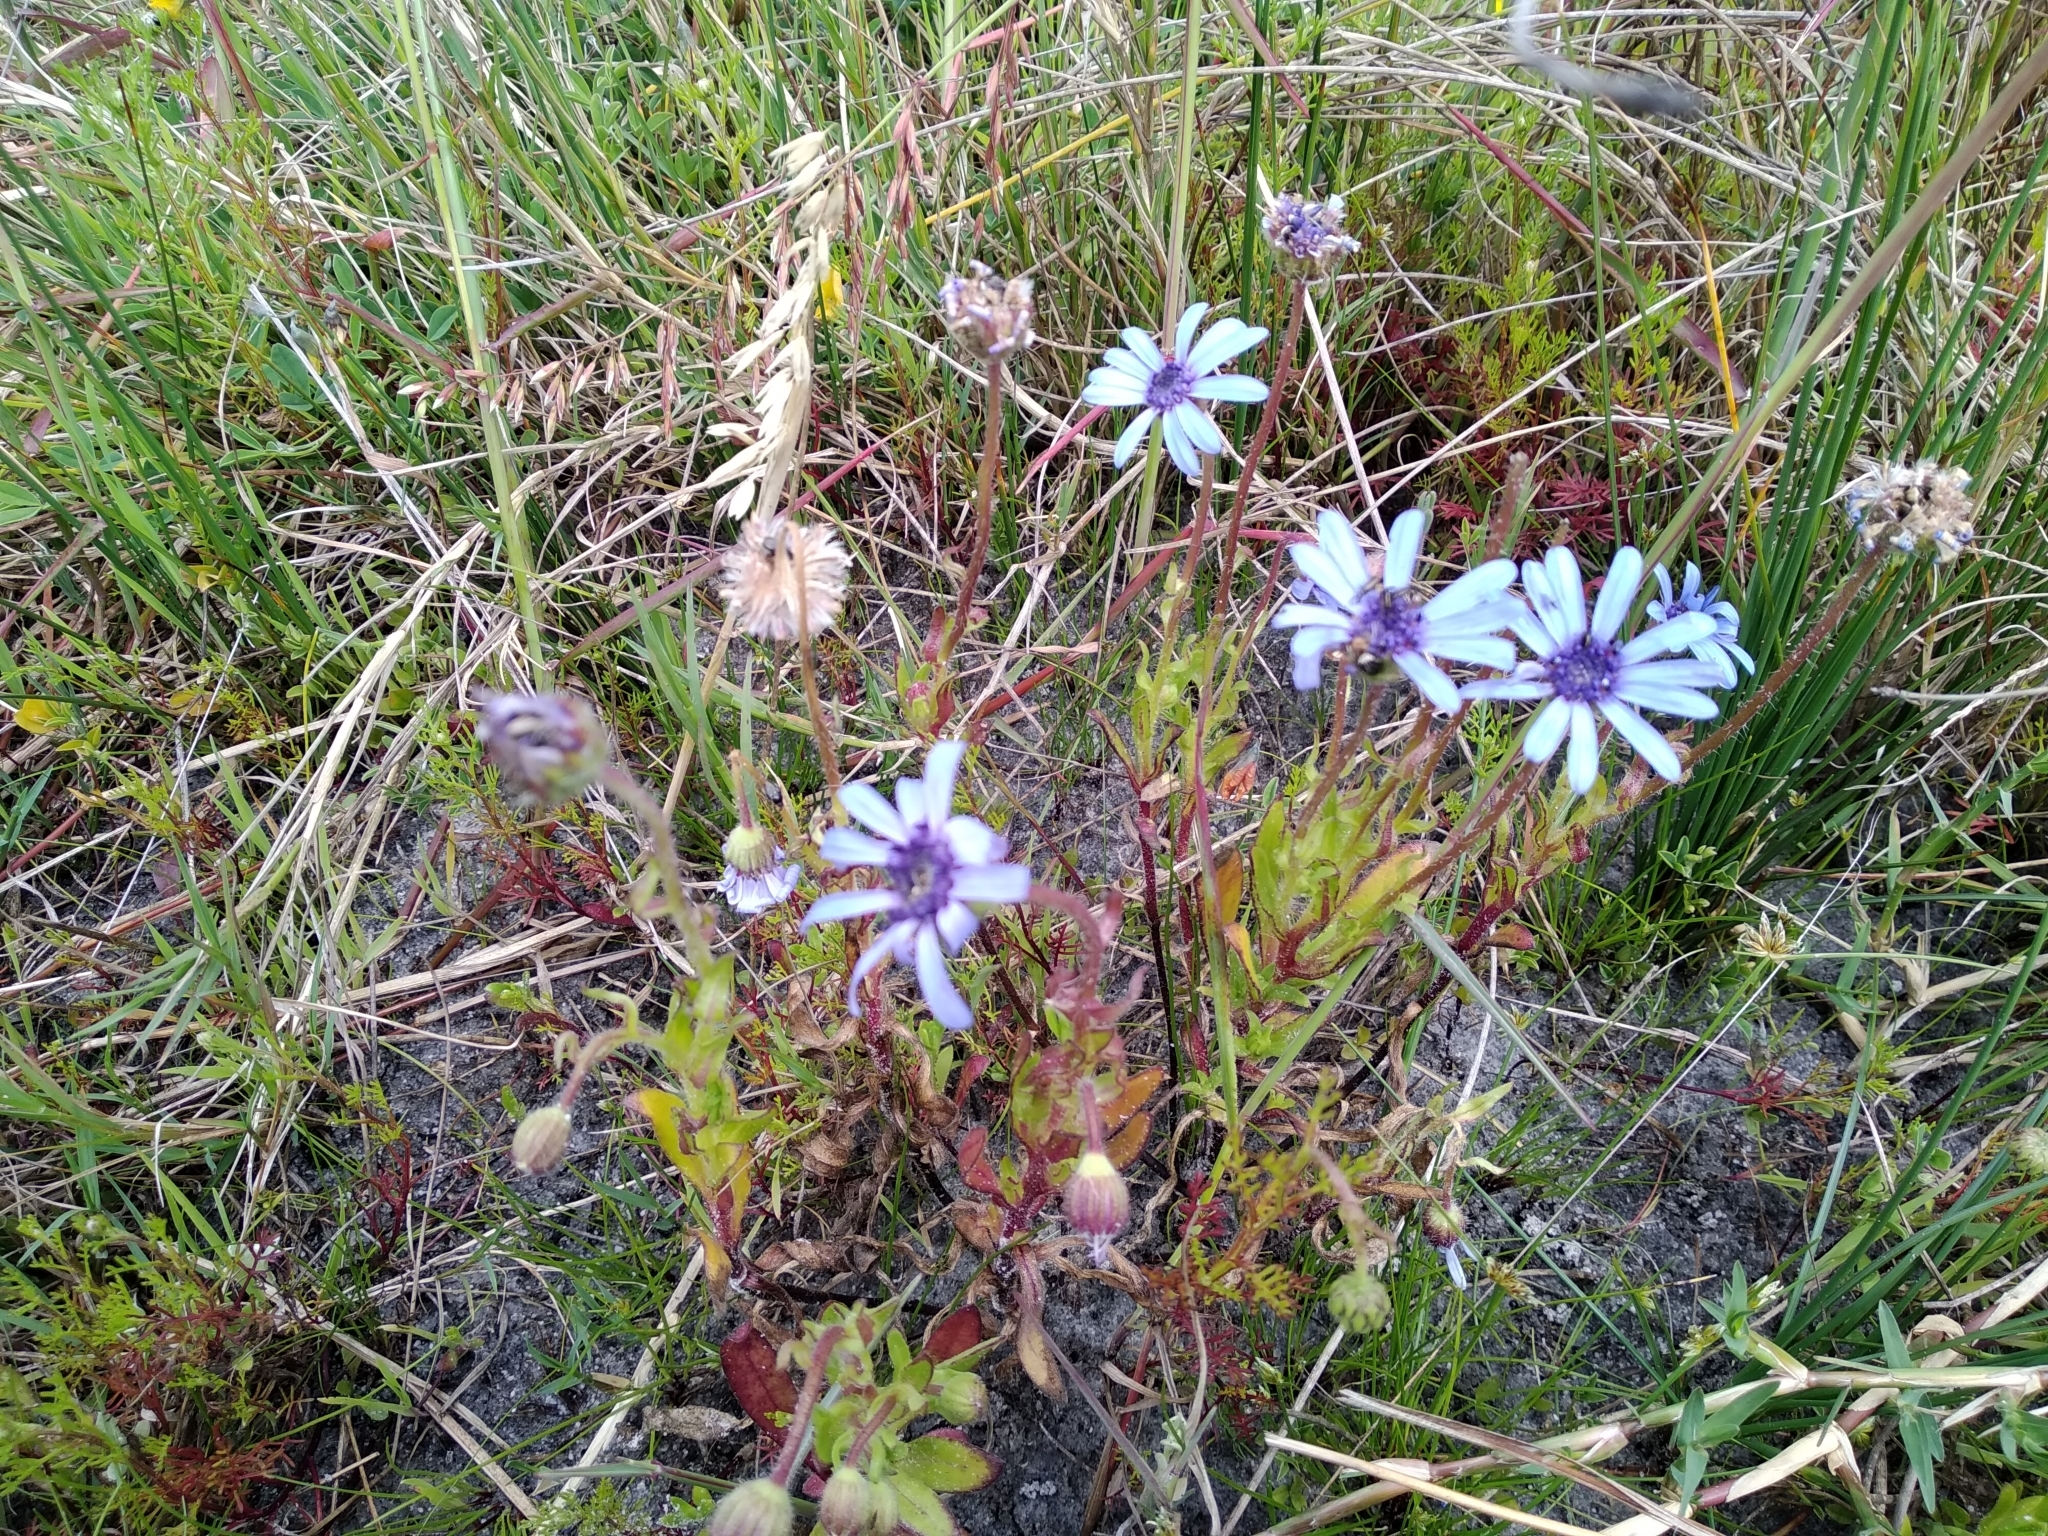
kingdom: Plantae
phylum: Tracheophyta
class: Magnoliopsida
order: Asterales
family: Asteraceae
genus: Felicia
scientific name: Felicia heterophylla
